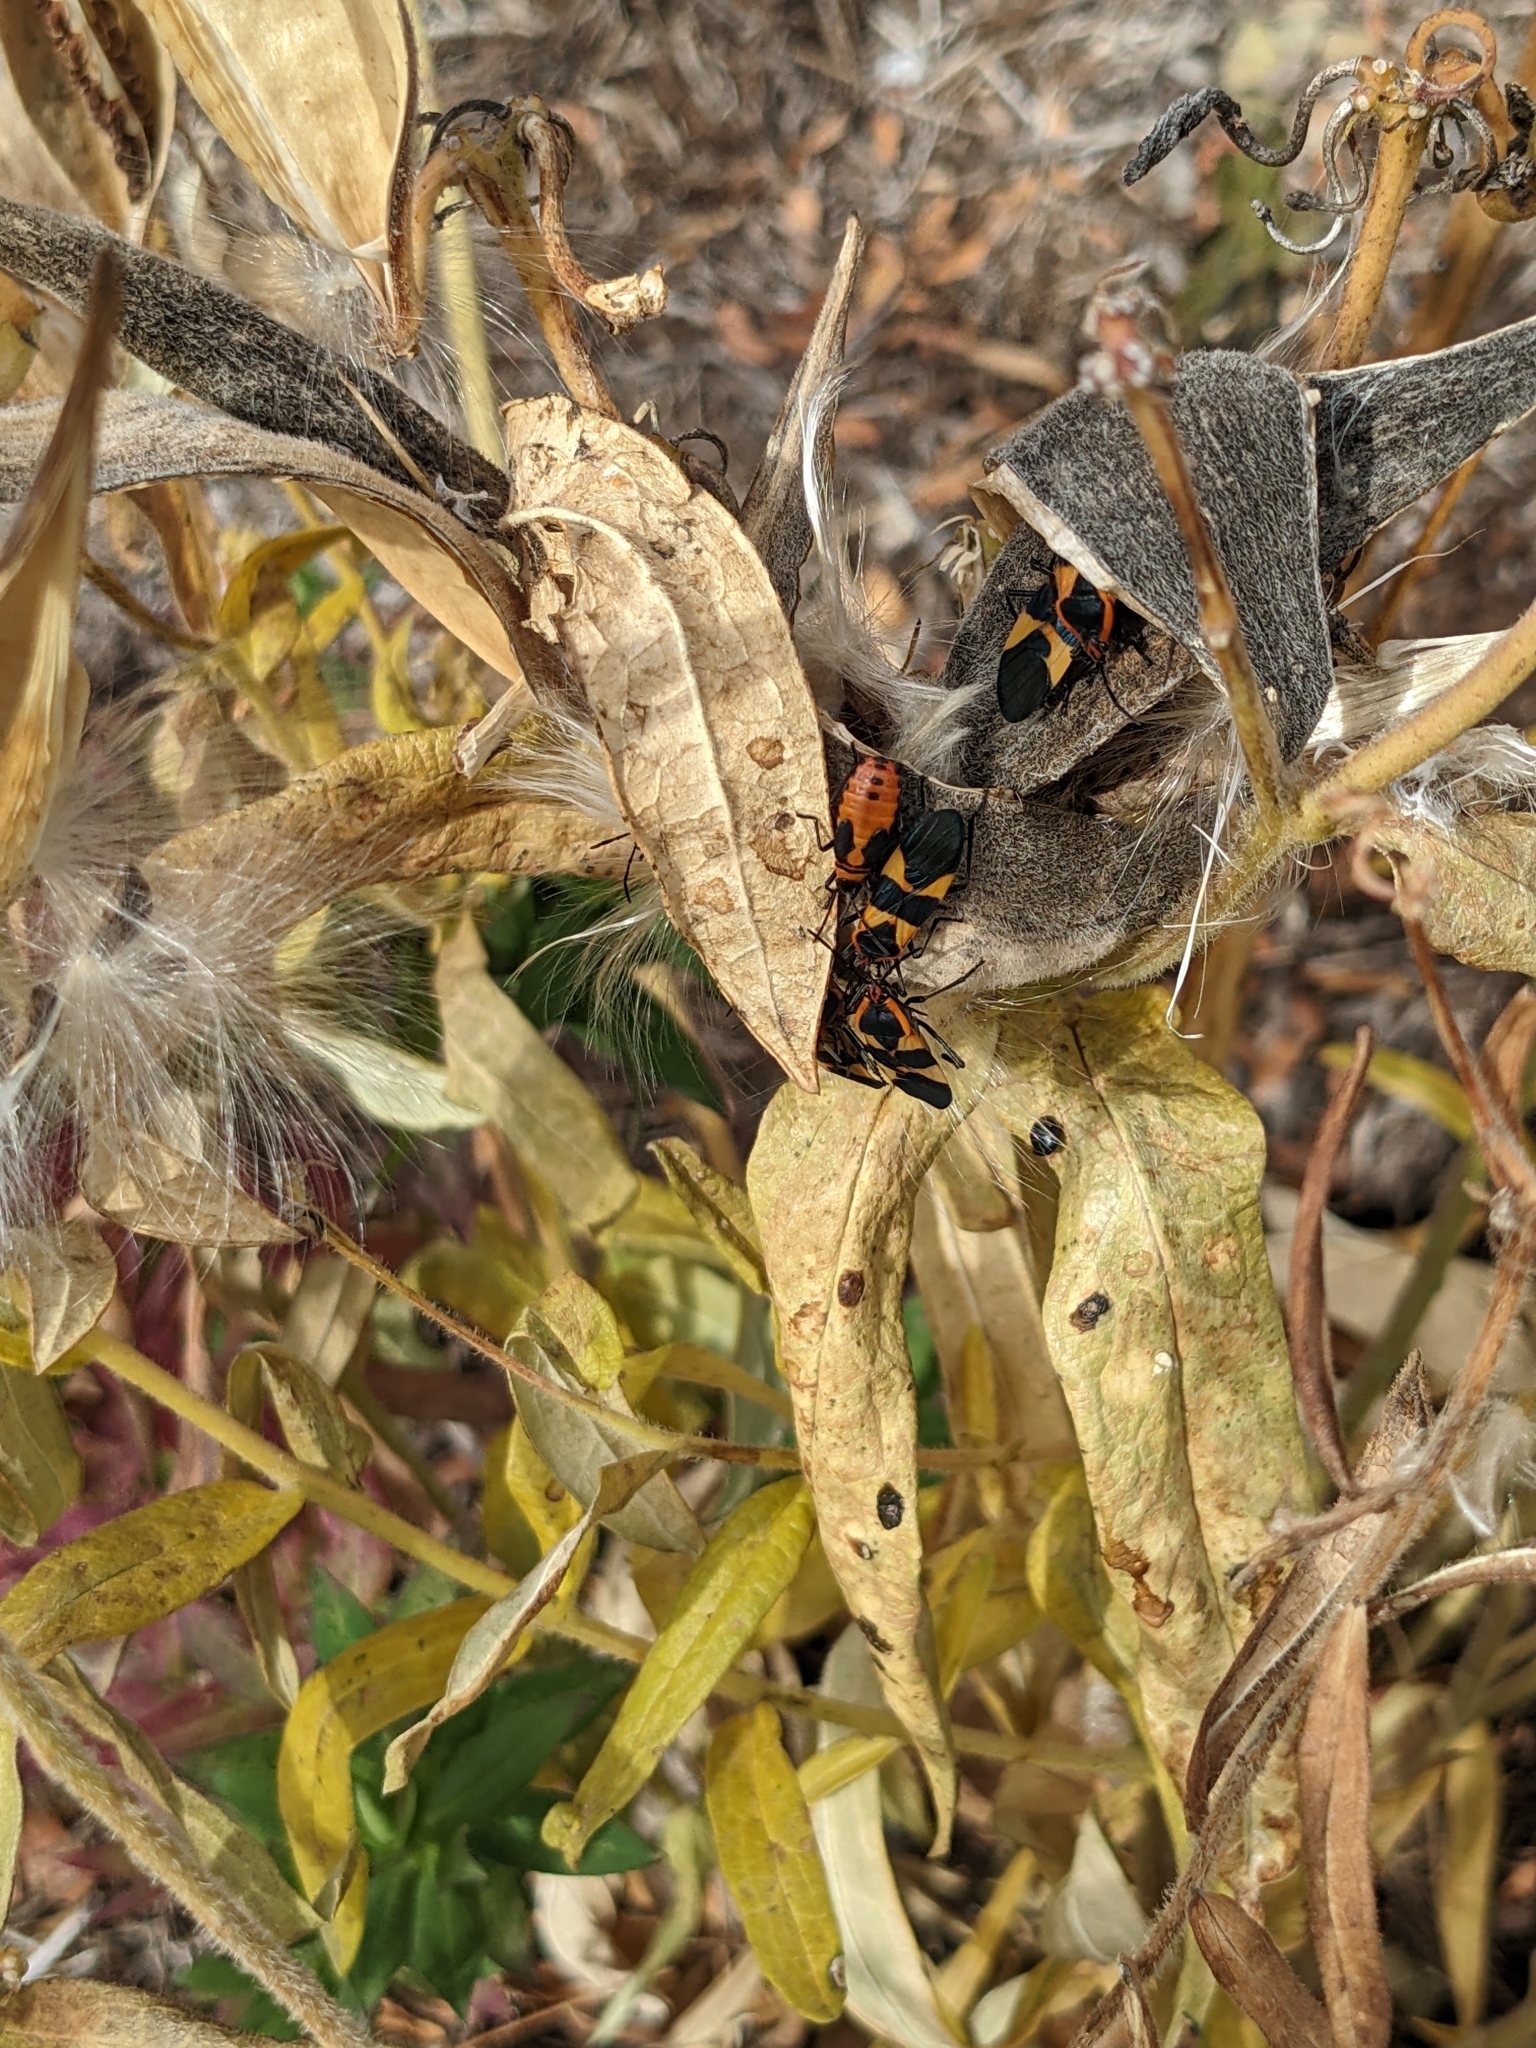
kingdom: Animalia
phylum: Arthropoda
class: Insecta
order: Hemiptera
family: Lygaeidae
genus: Oncopeltus
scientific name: Oncopeltus fasciatus
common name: Large milkweed bug
